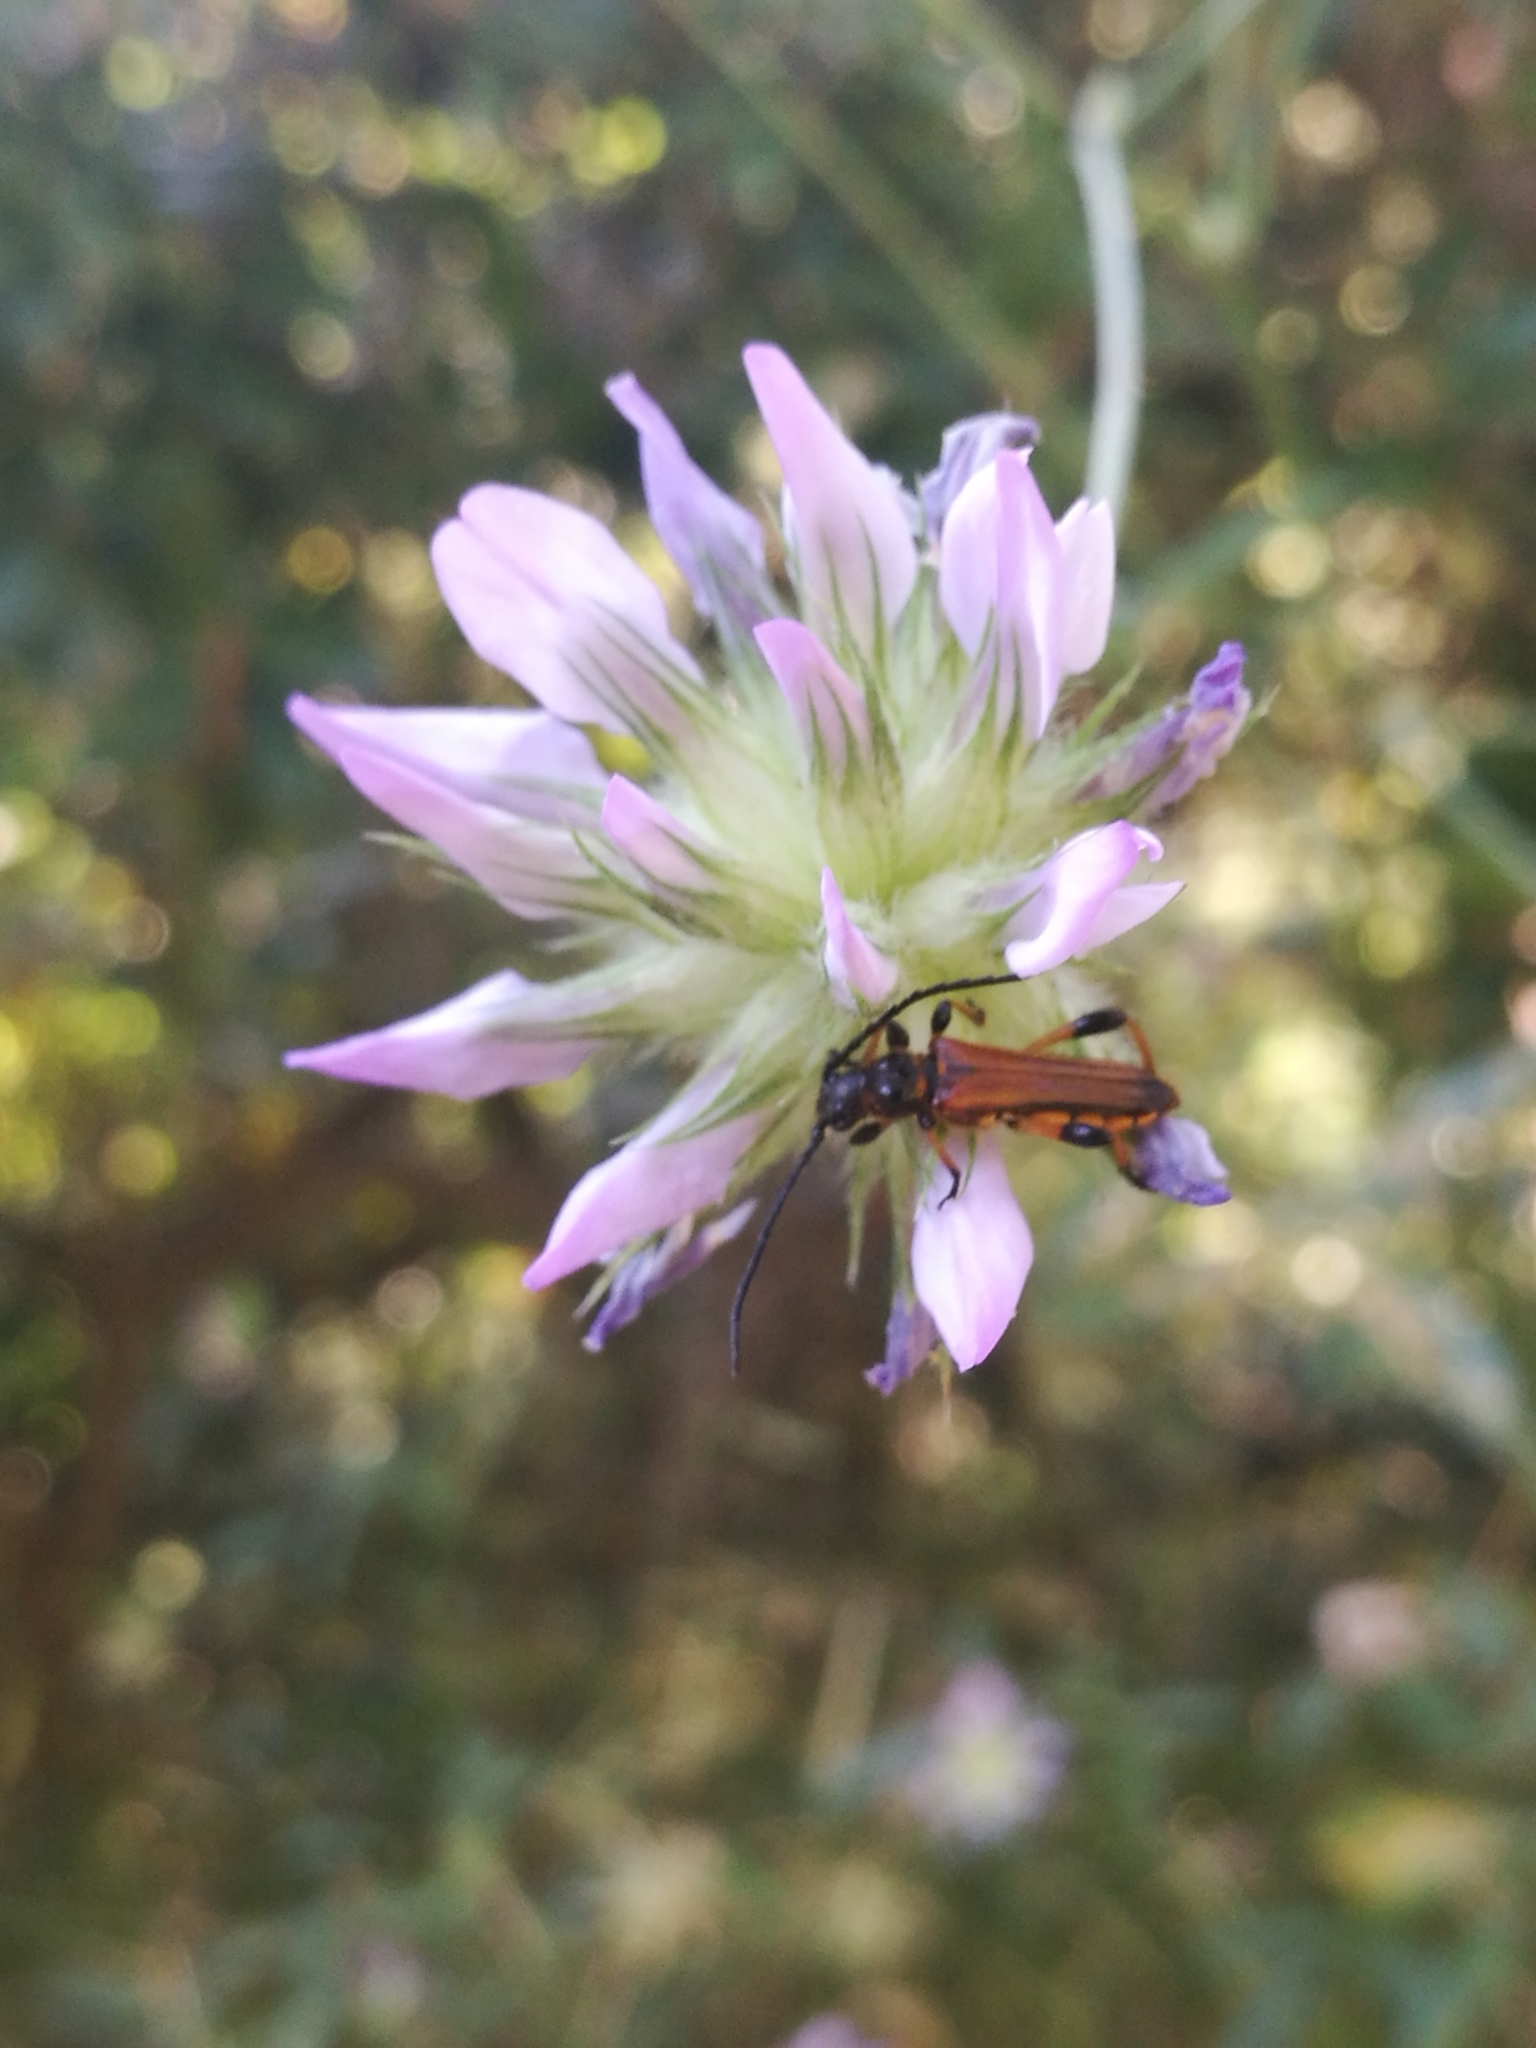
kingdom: Animalia
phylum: Arthropoda
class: Insecta
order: Coleoptera
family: Cerambycidae
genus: Stenopterus
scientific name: Stenopterus ater
